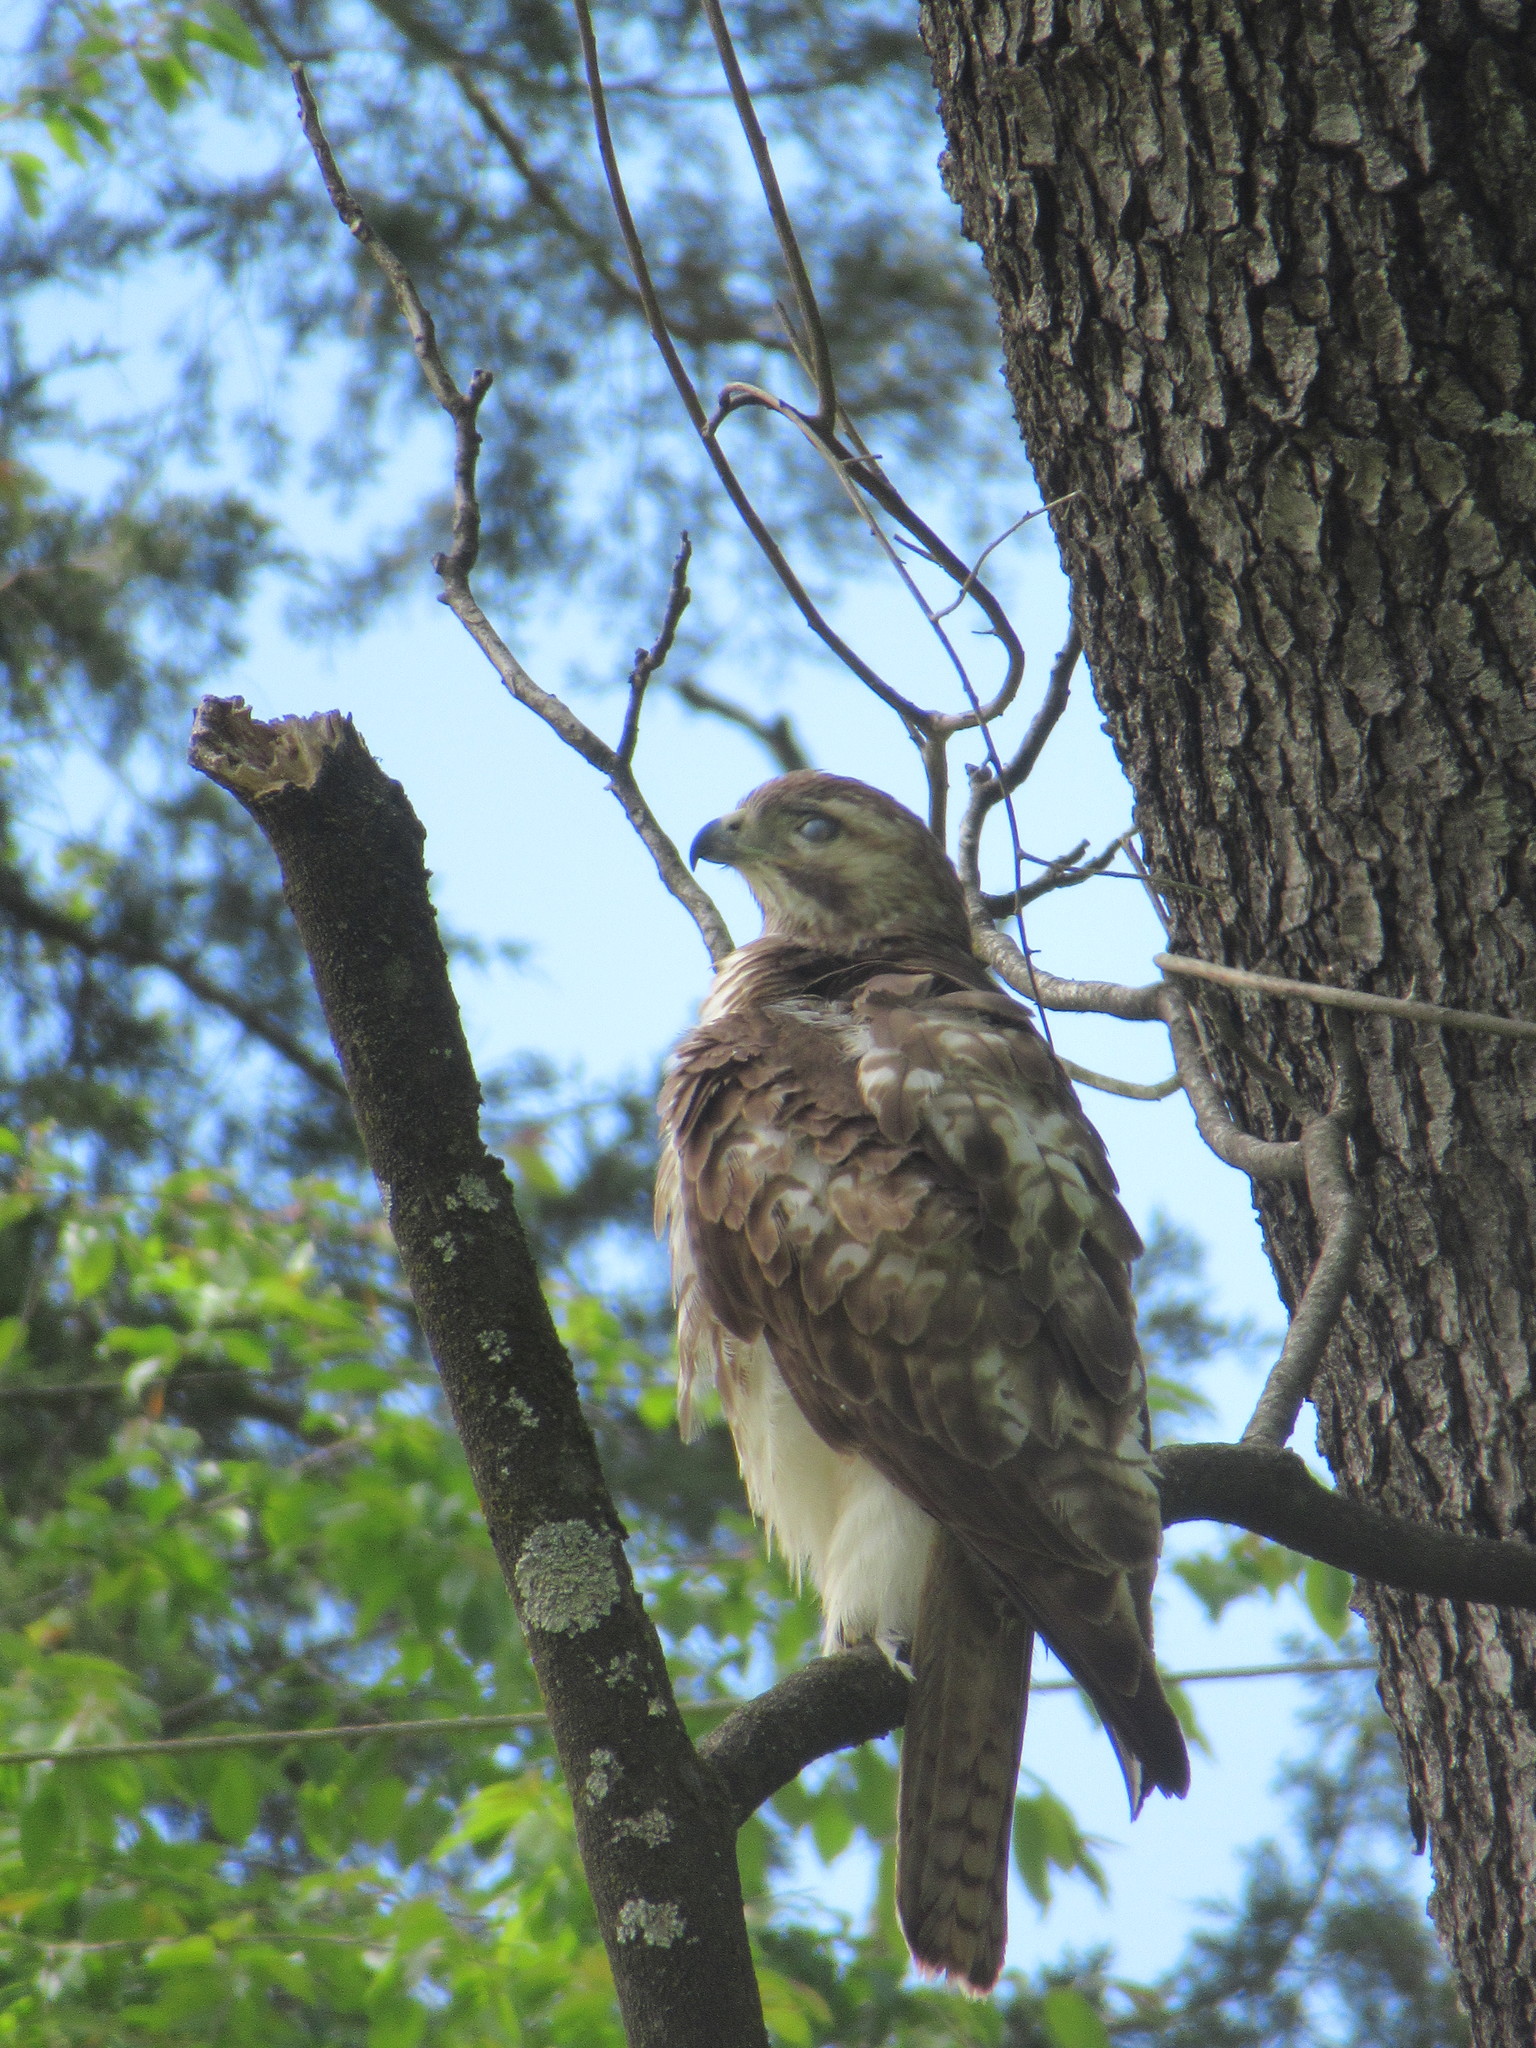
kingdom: Animalia
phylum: Chordata
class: Aves
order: Accipitriformes
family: Accipitridae
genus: Buteo
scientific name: Buteo jamaicensis
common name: Red-tailed hawk
